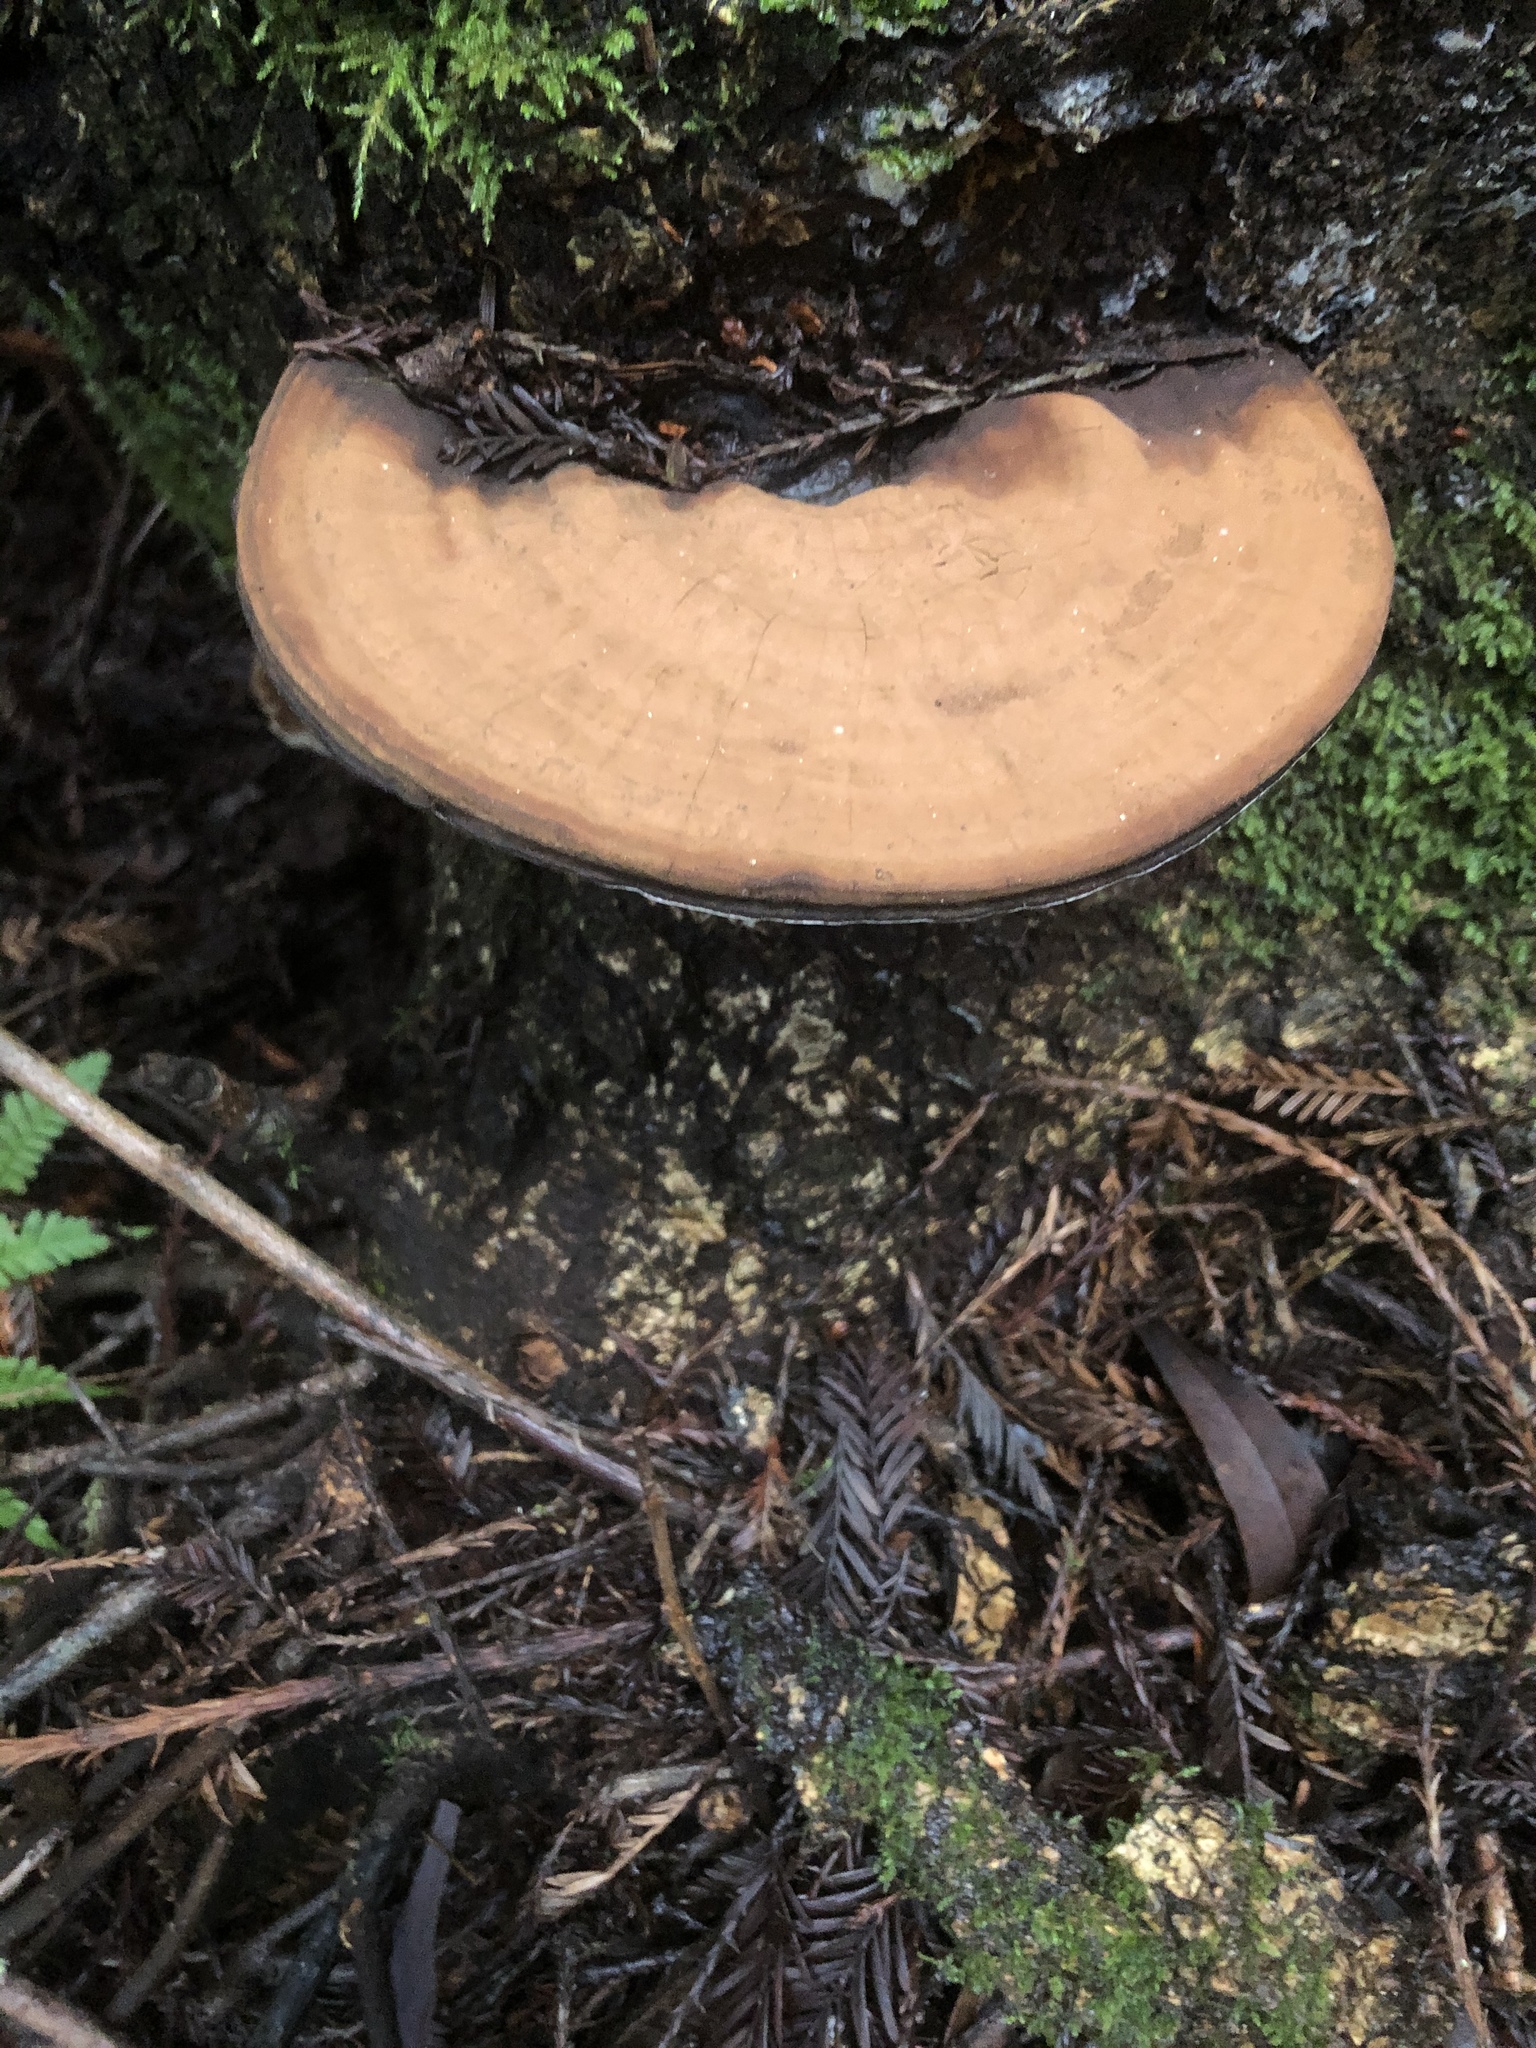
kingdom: Fungi
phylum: Basidiomycota
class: Agaricomycetes
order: Polyporales
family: Polyporaceae
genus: Ganoderma
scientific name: Ganoderma brownii
